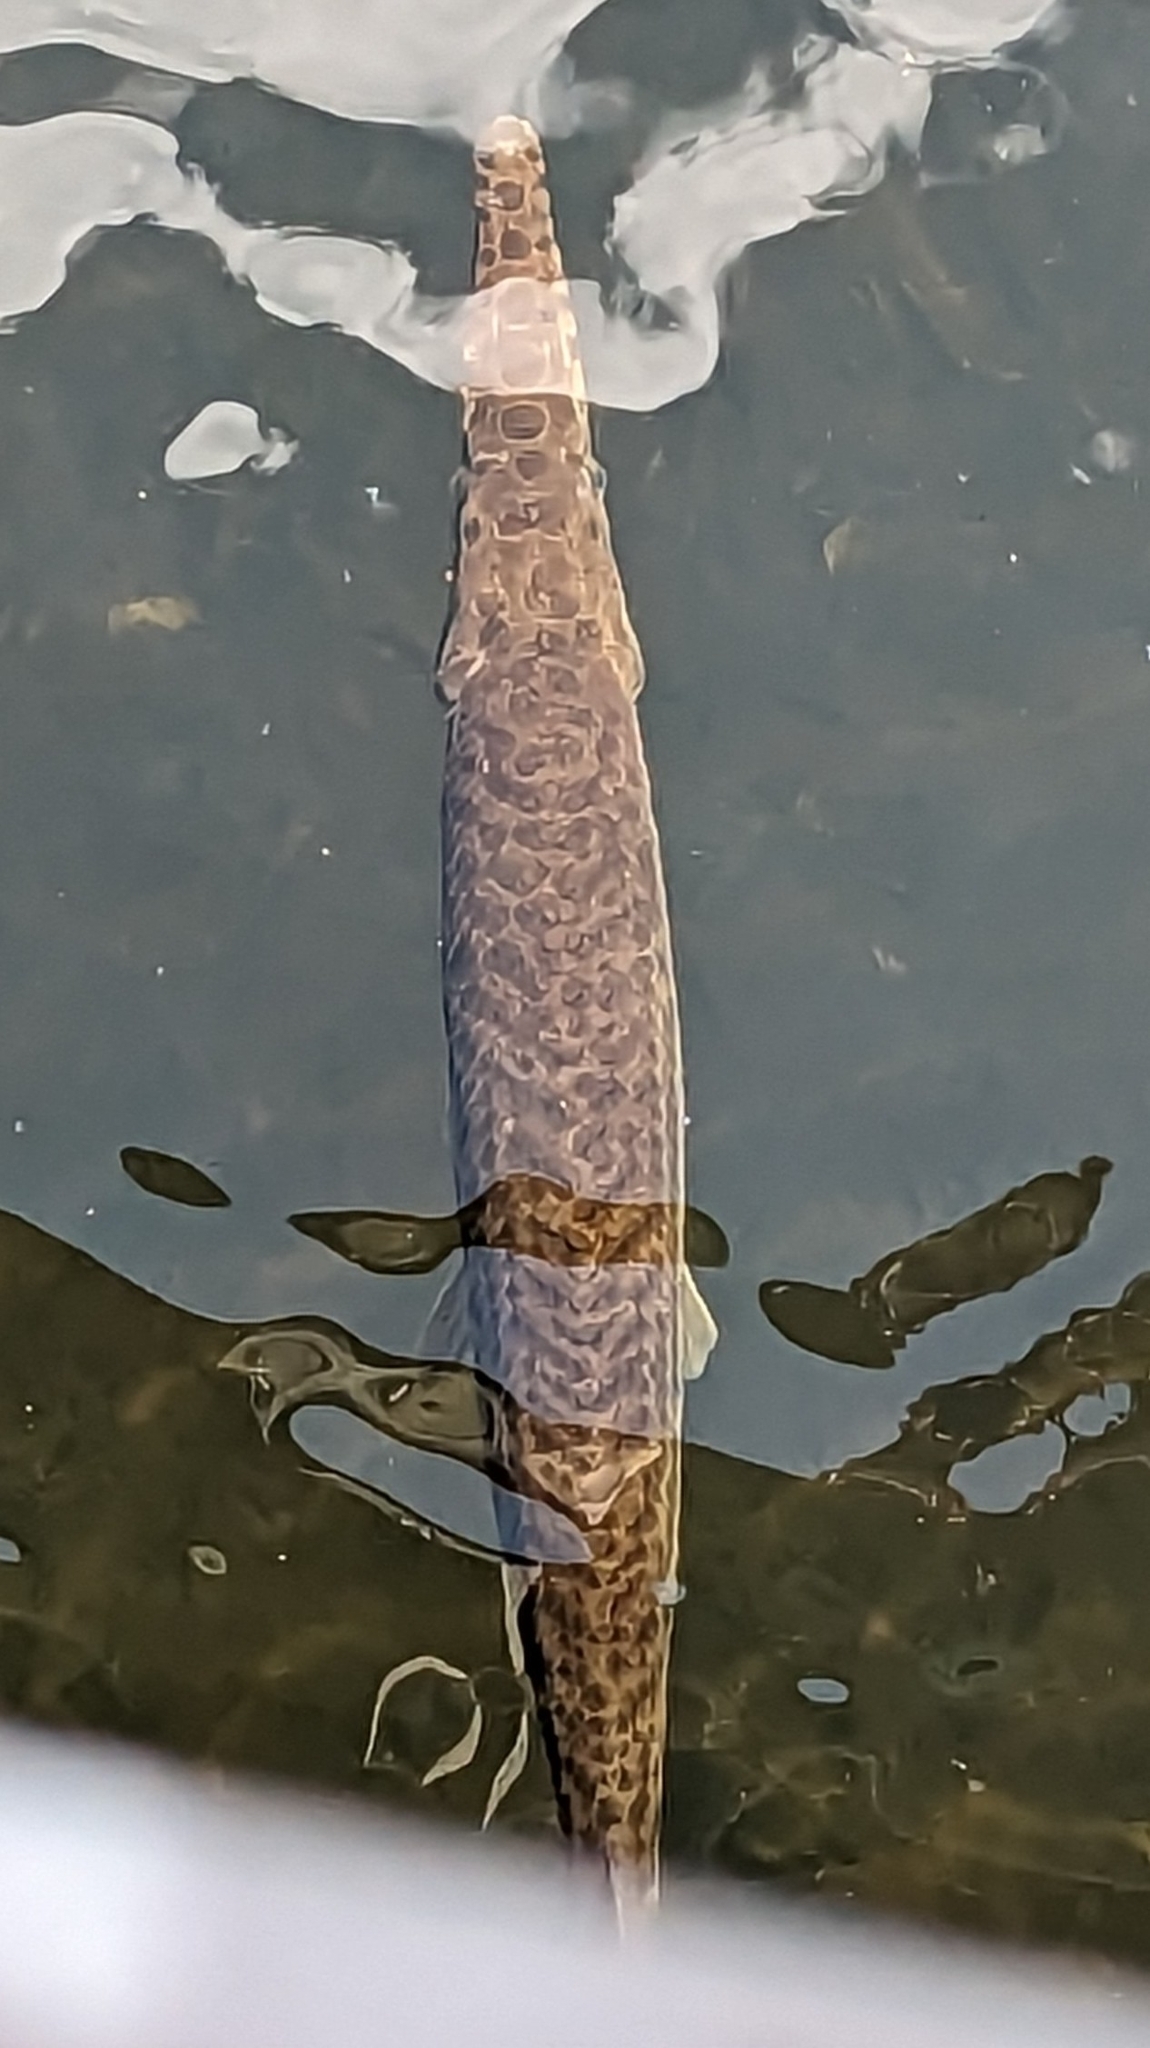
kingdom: Animalia
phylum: Chordata
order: Lepisosteiformes
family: Lepisosteidae
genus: Lepisosteus
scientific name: Lepisosteus platyrhincus
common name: Florida gar
